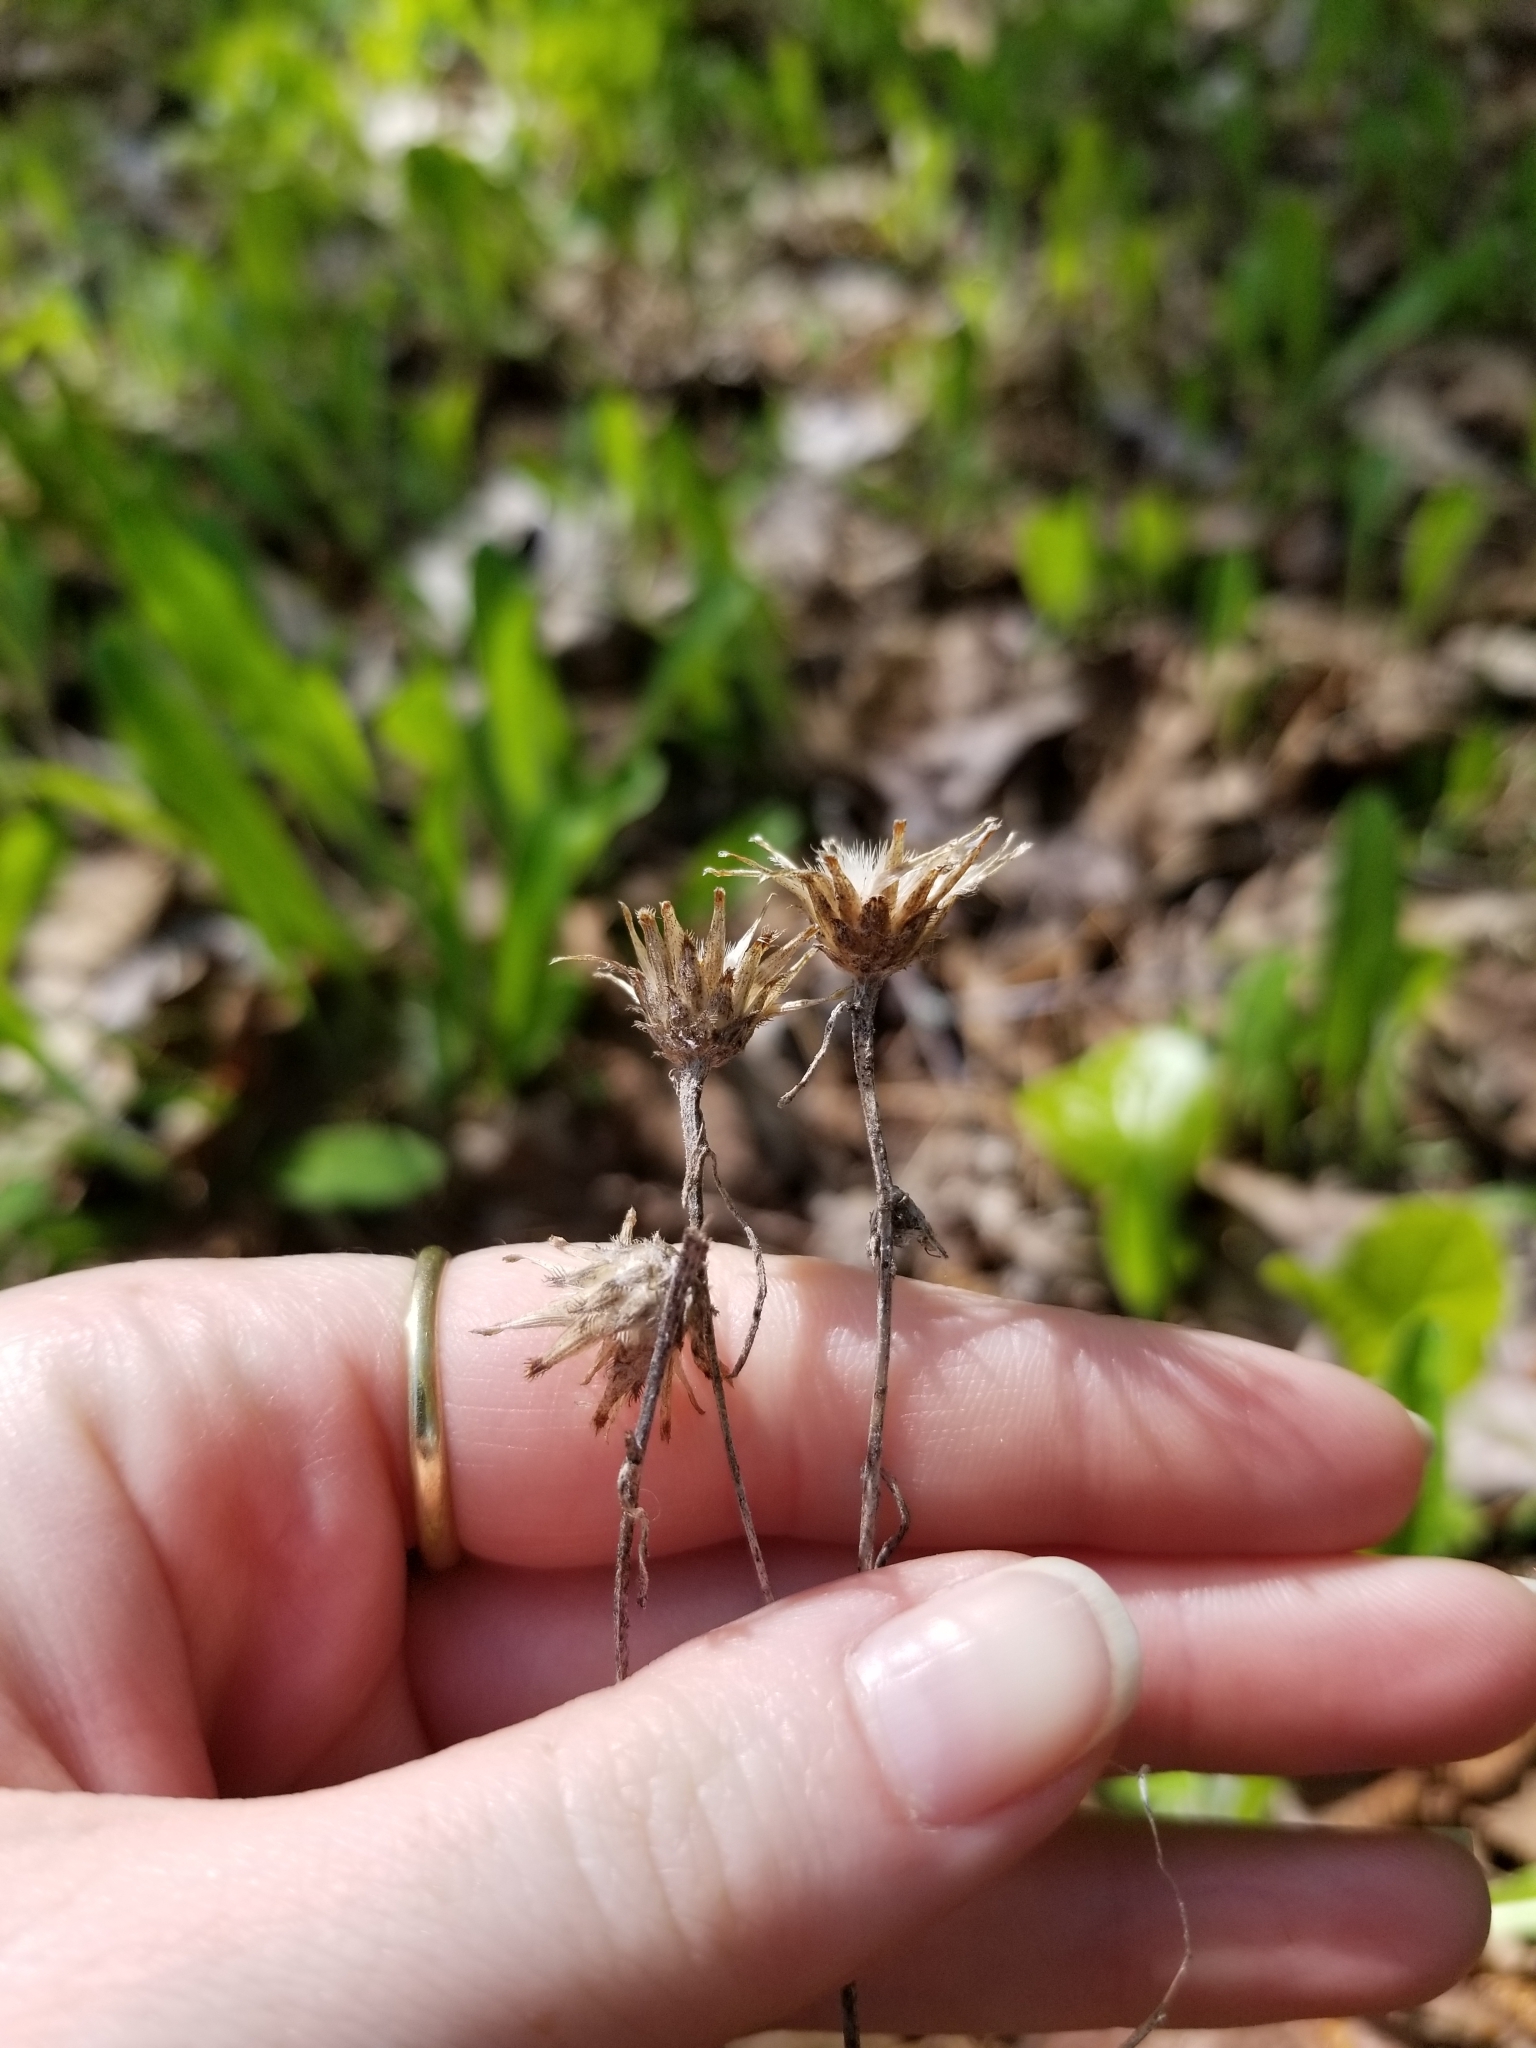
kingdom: Plantae
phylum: Tracheophyta
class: Magnoliopsida
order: Asterales
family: Asteraceae
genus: Centaurea
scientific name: Centaurea stoebe
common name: Spotted knapweed
